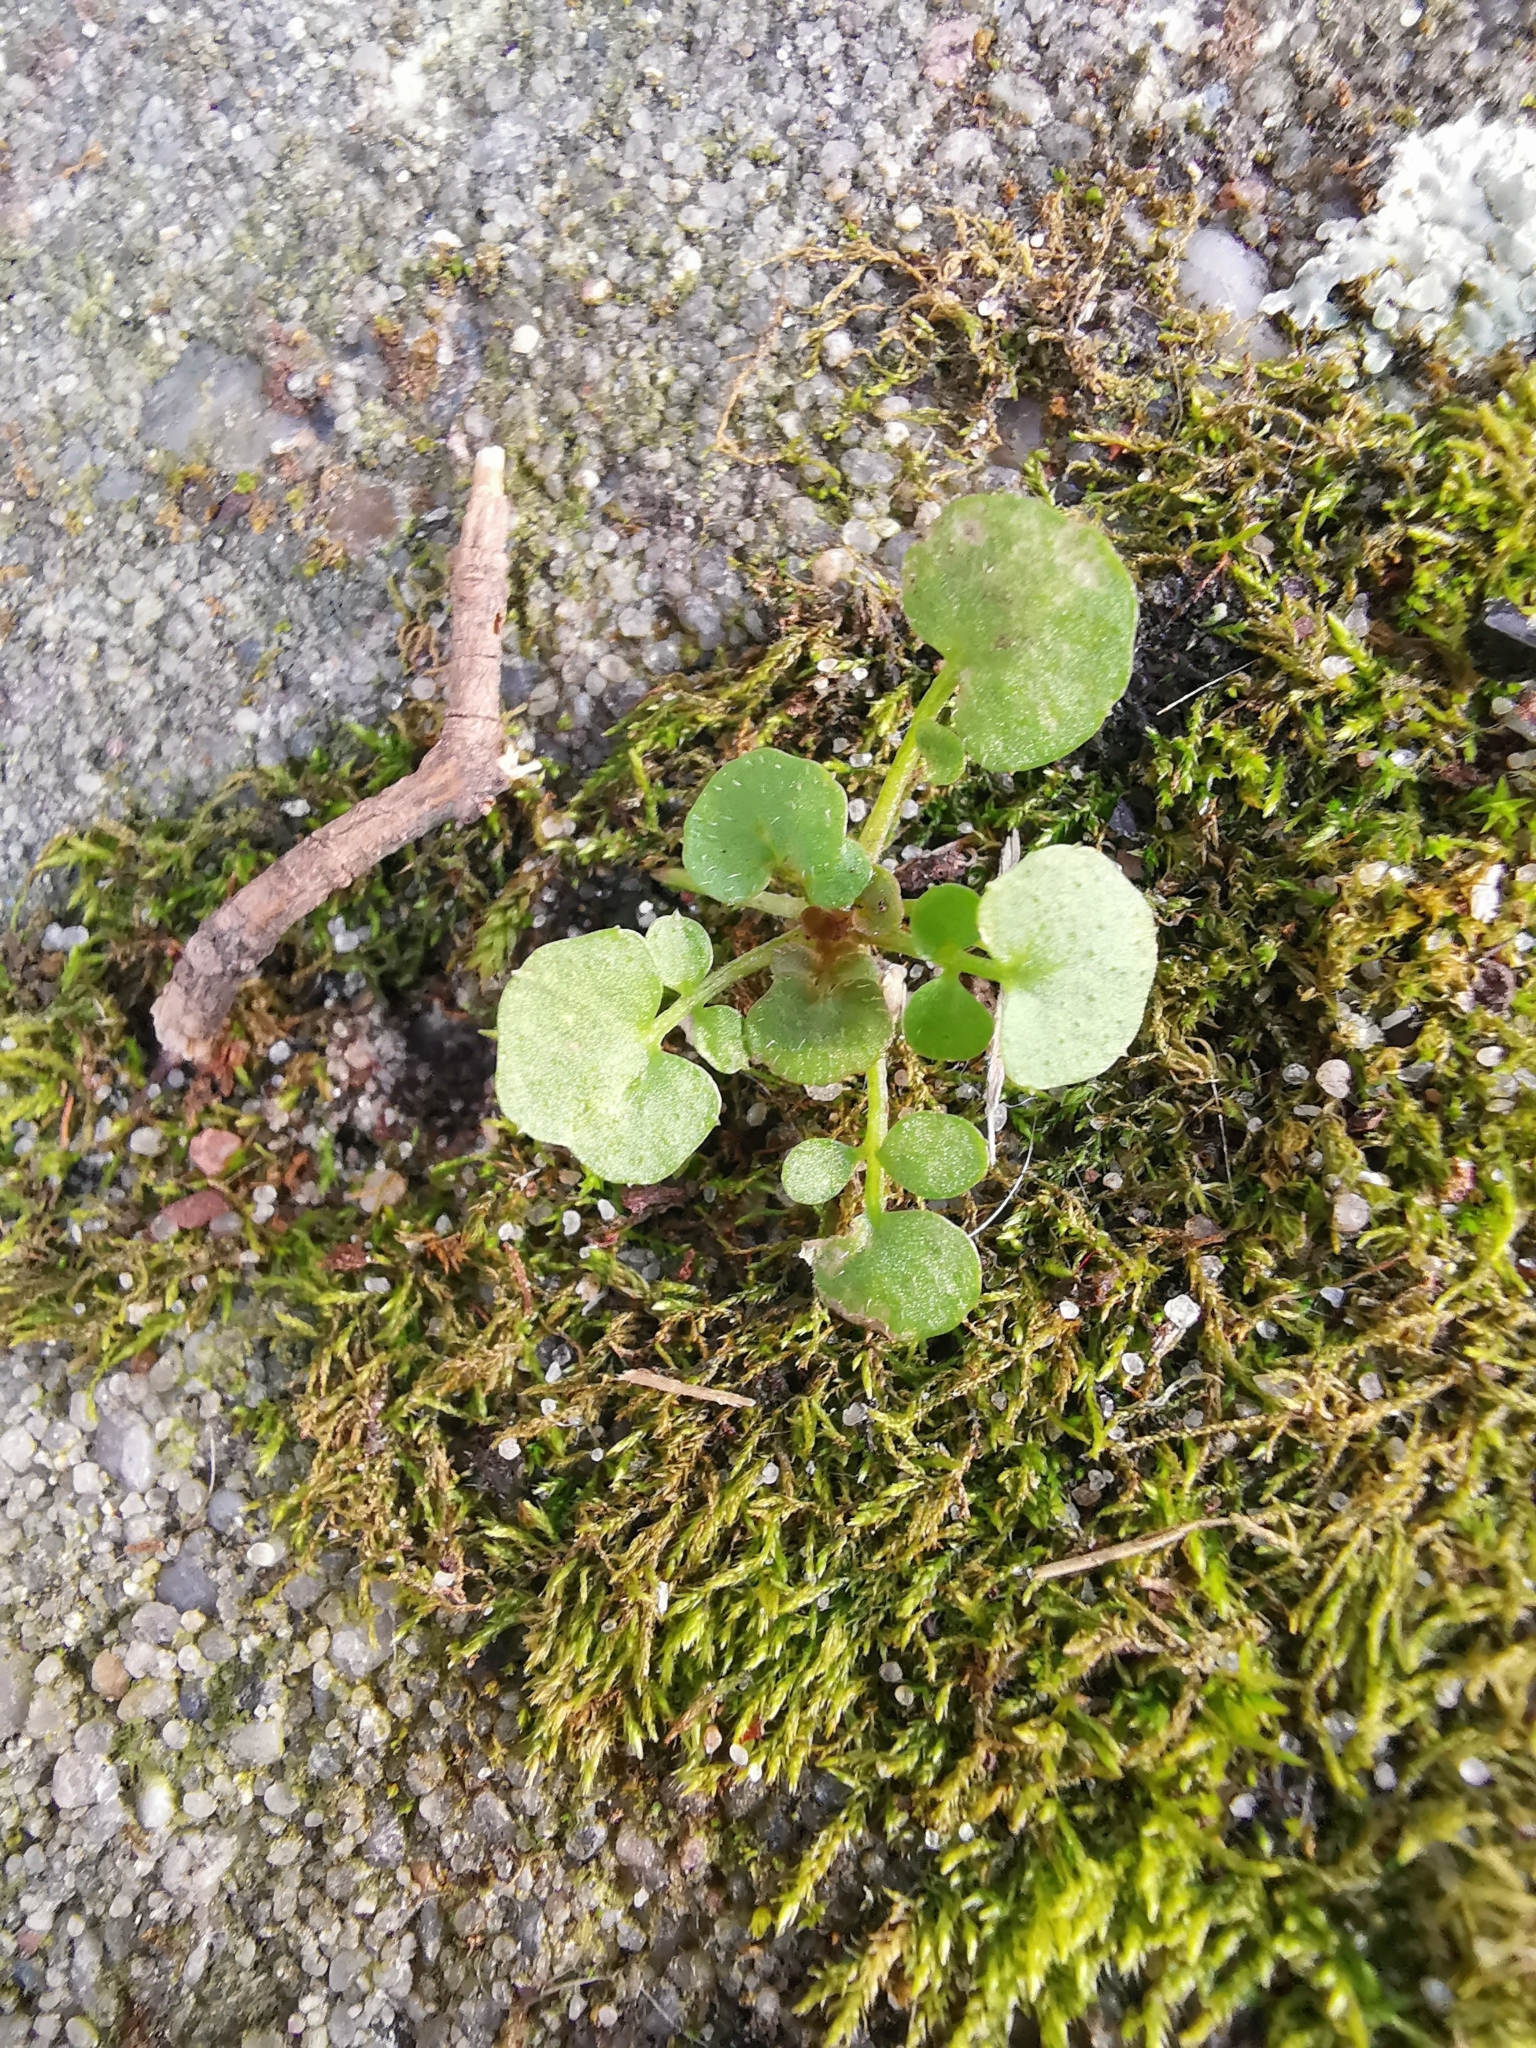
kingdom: Plantae
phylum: Tracheophyta
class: Magnoliopsida
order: Brassicales
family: Brassicaceae
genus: Cardamine
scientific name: Cardamine hirsuta
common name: Hairy bittercress
